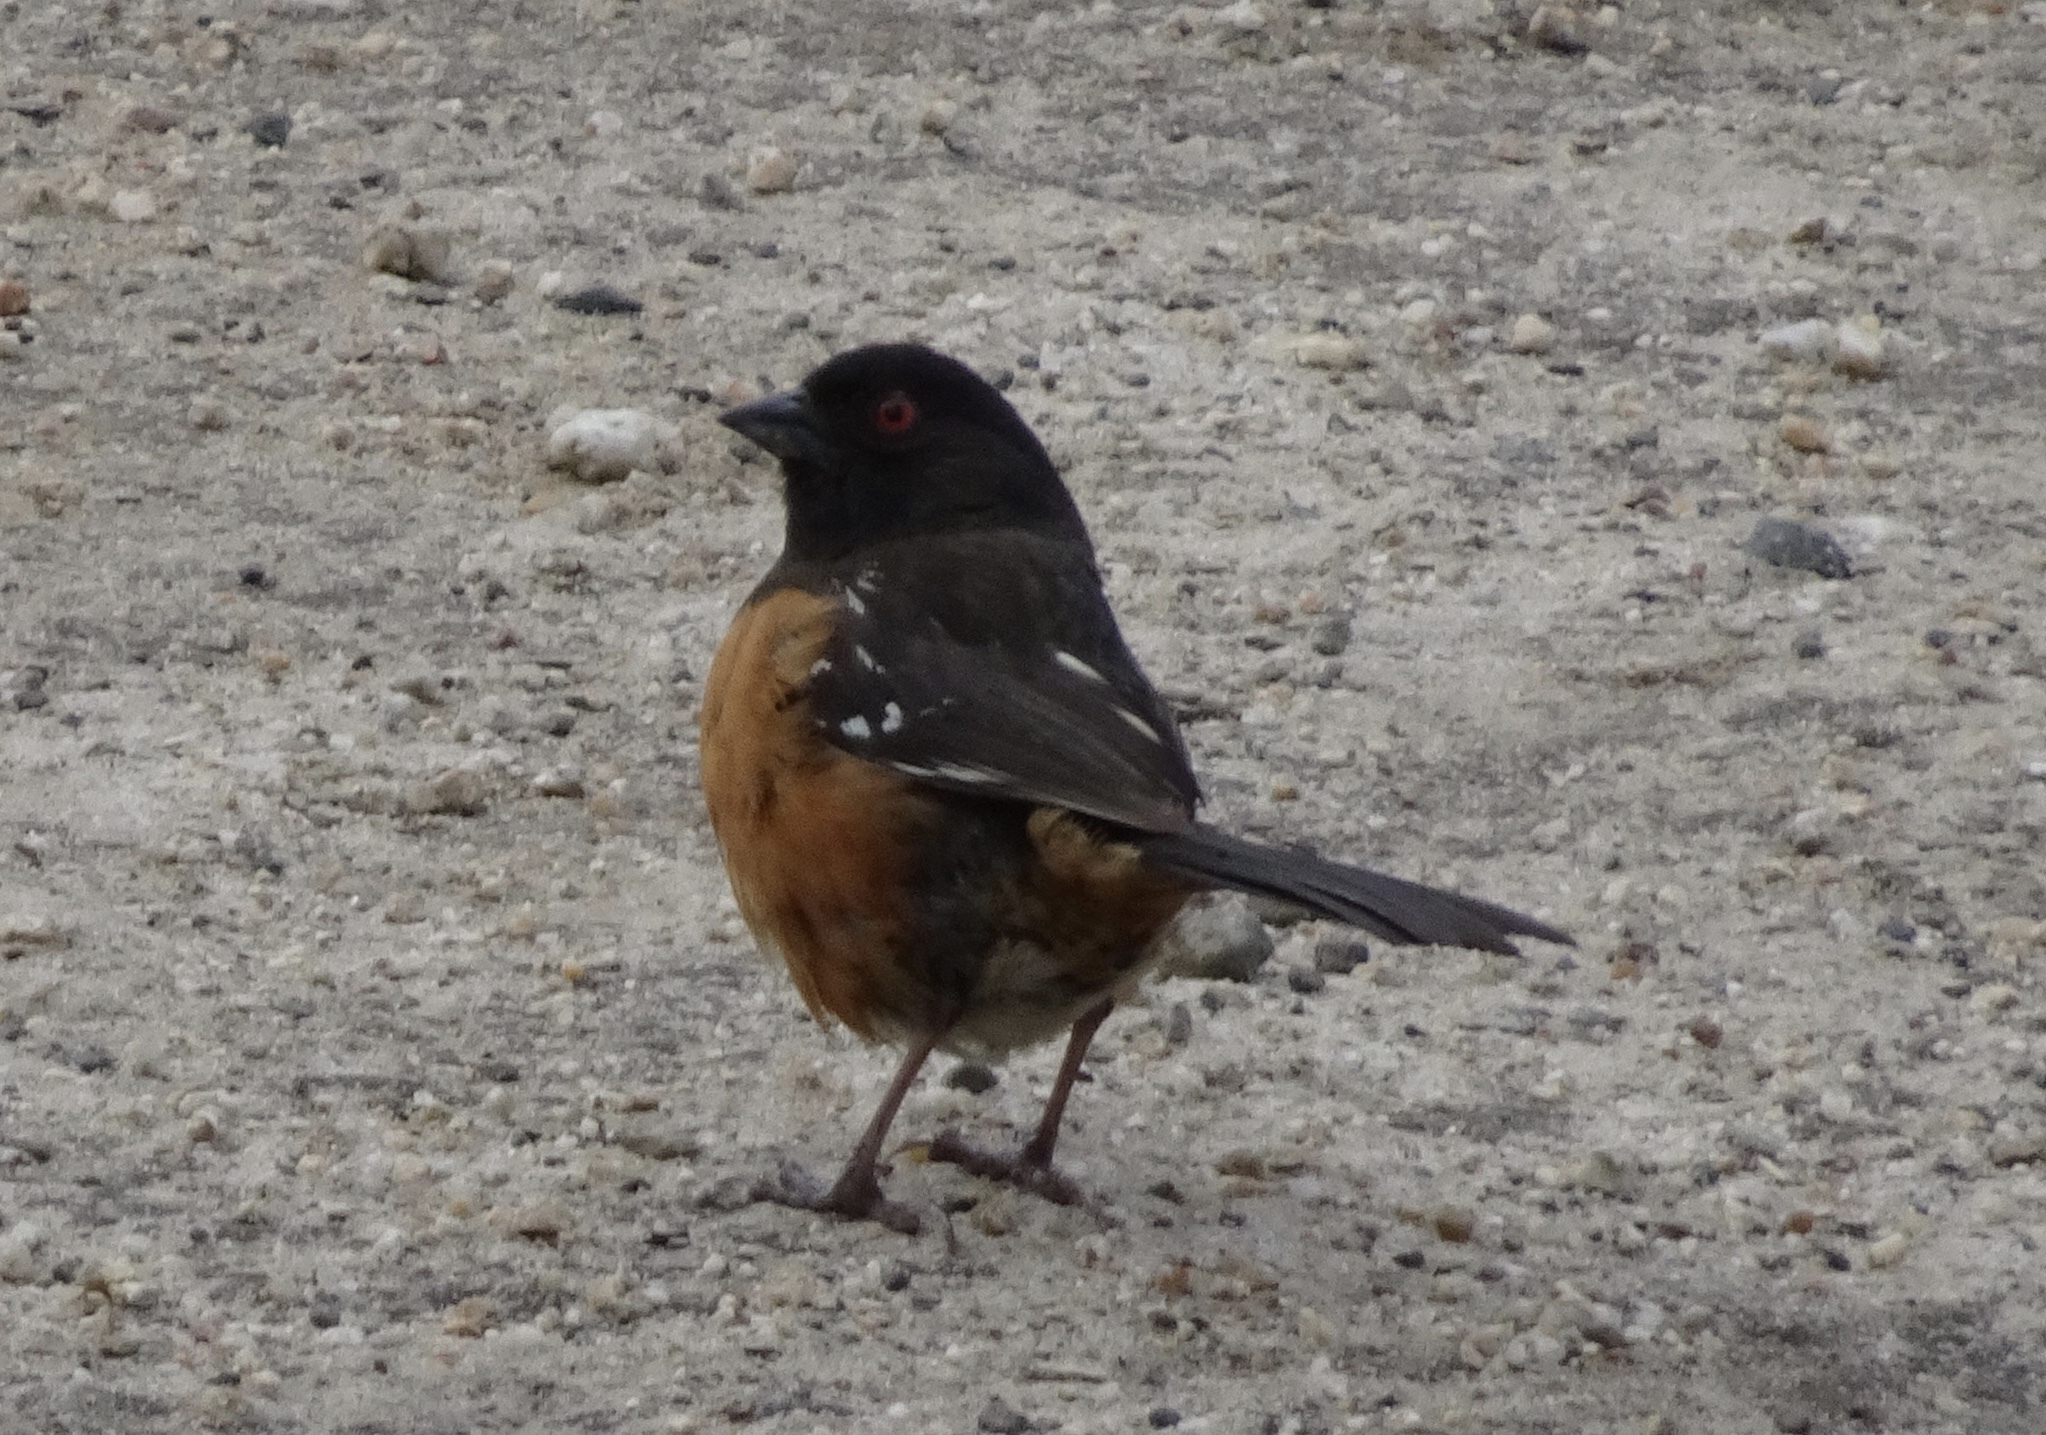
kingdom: Animalia
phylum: Chordata
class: Aves
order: Passeriformes
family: Passerellidae
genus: Pipilo
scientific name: Pipilo maculatus
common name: Spotted towhee
